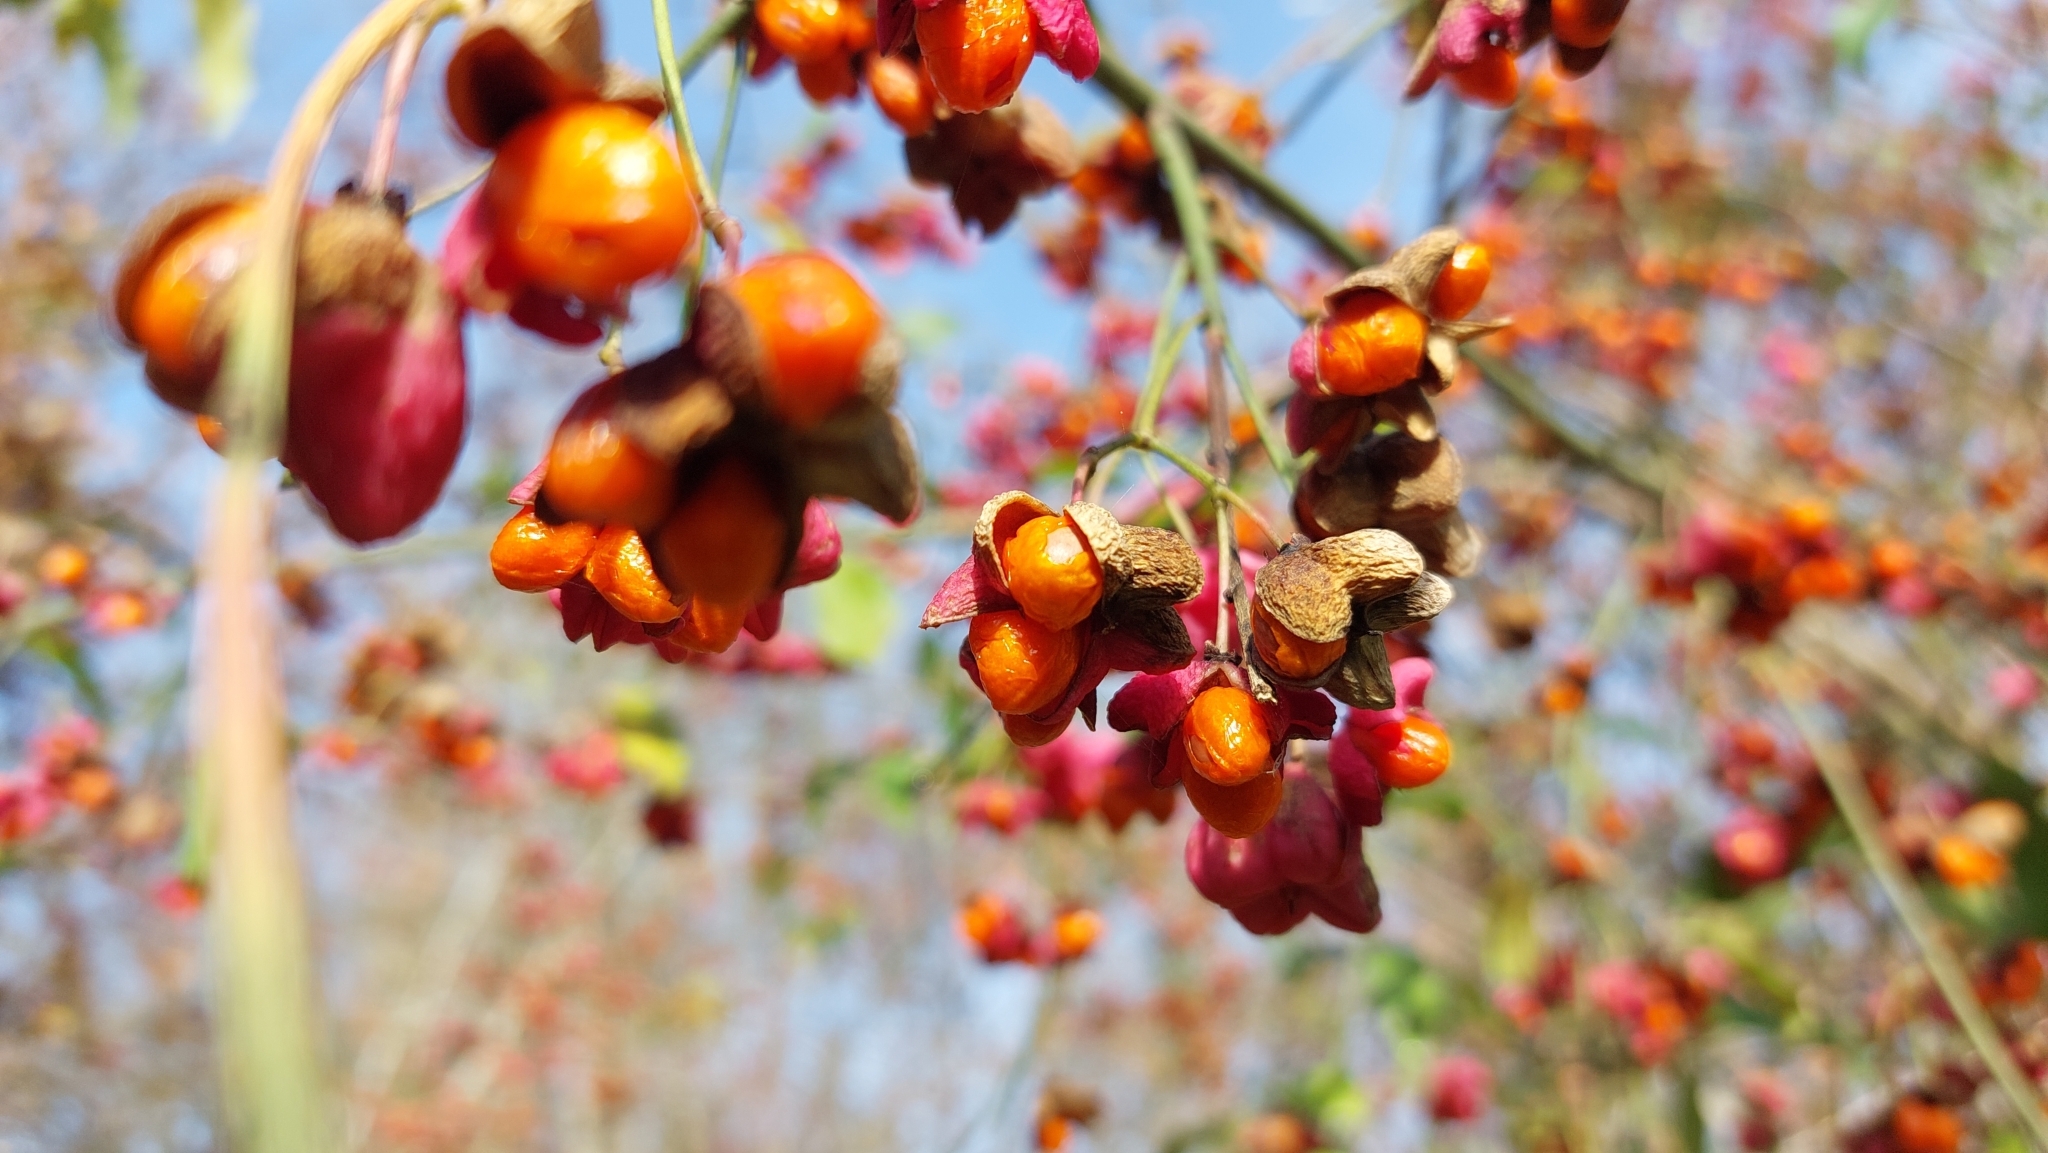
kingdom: Plantae
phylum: Tracheophyta
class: Magnoliopsida
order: Celastrales
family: Celastraceae
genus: Euonymus
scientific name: Euonymus europaeus
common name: Spindle
